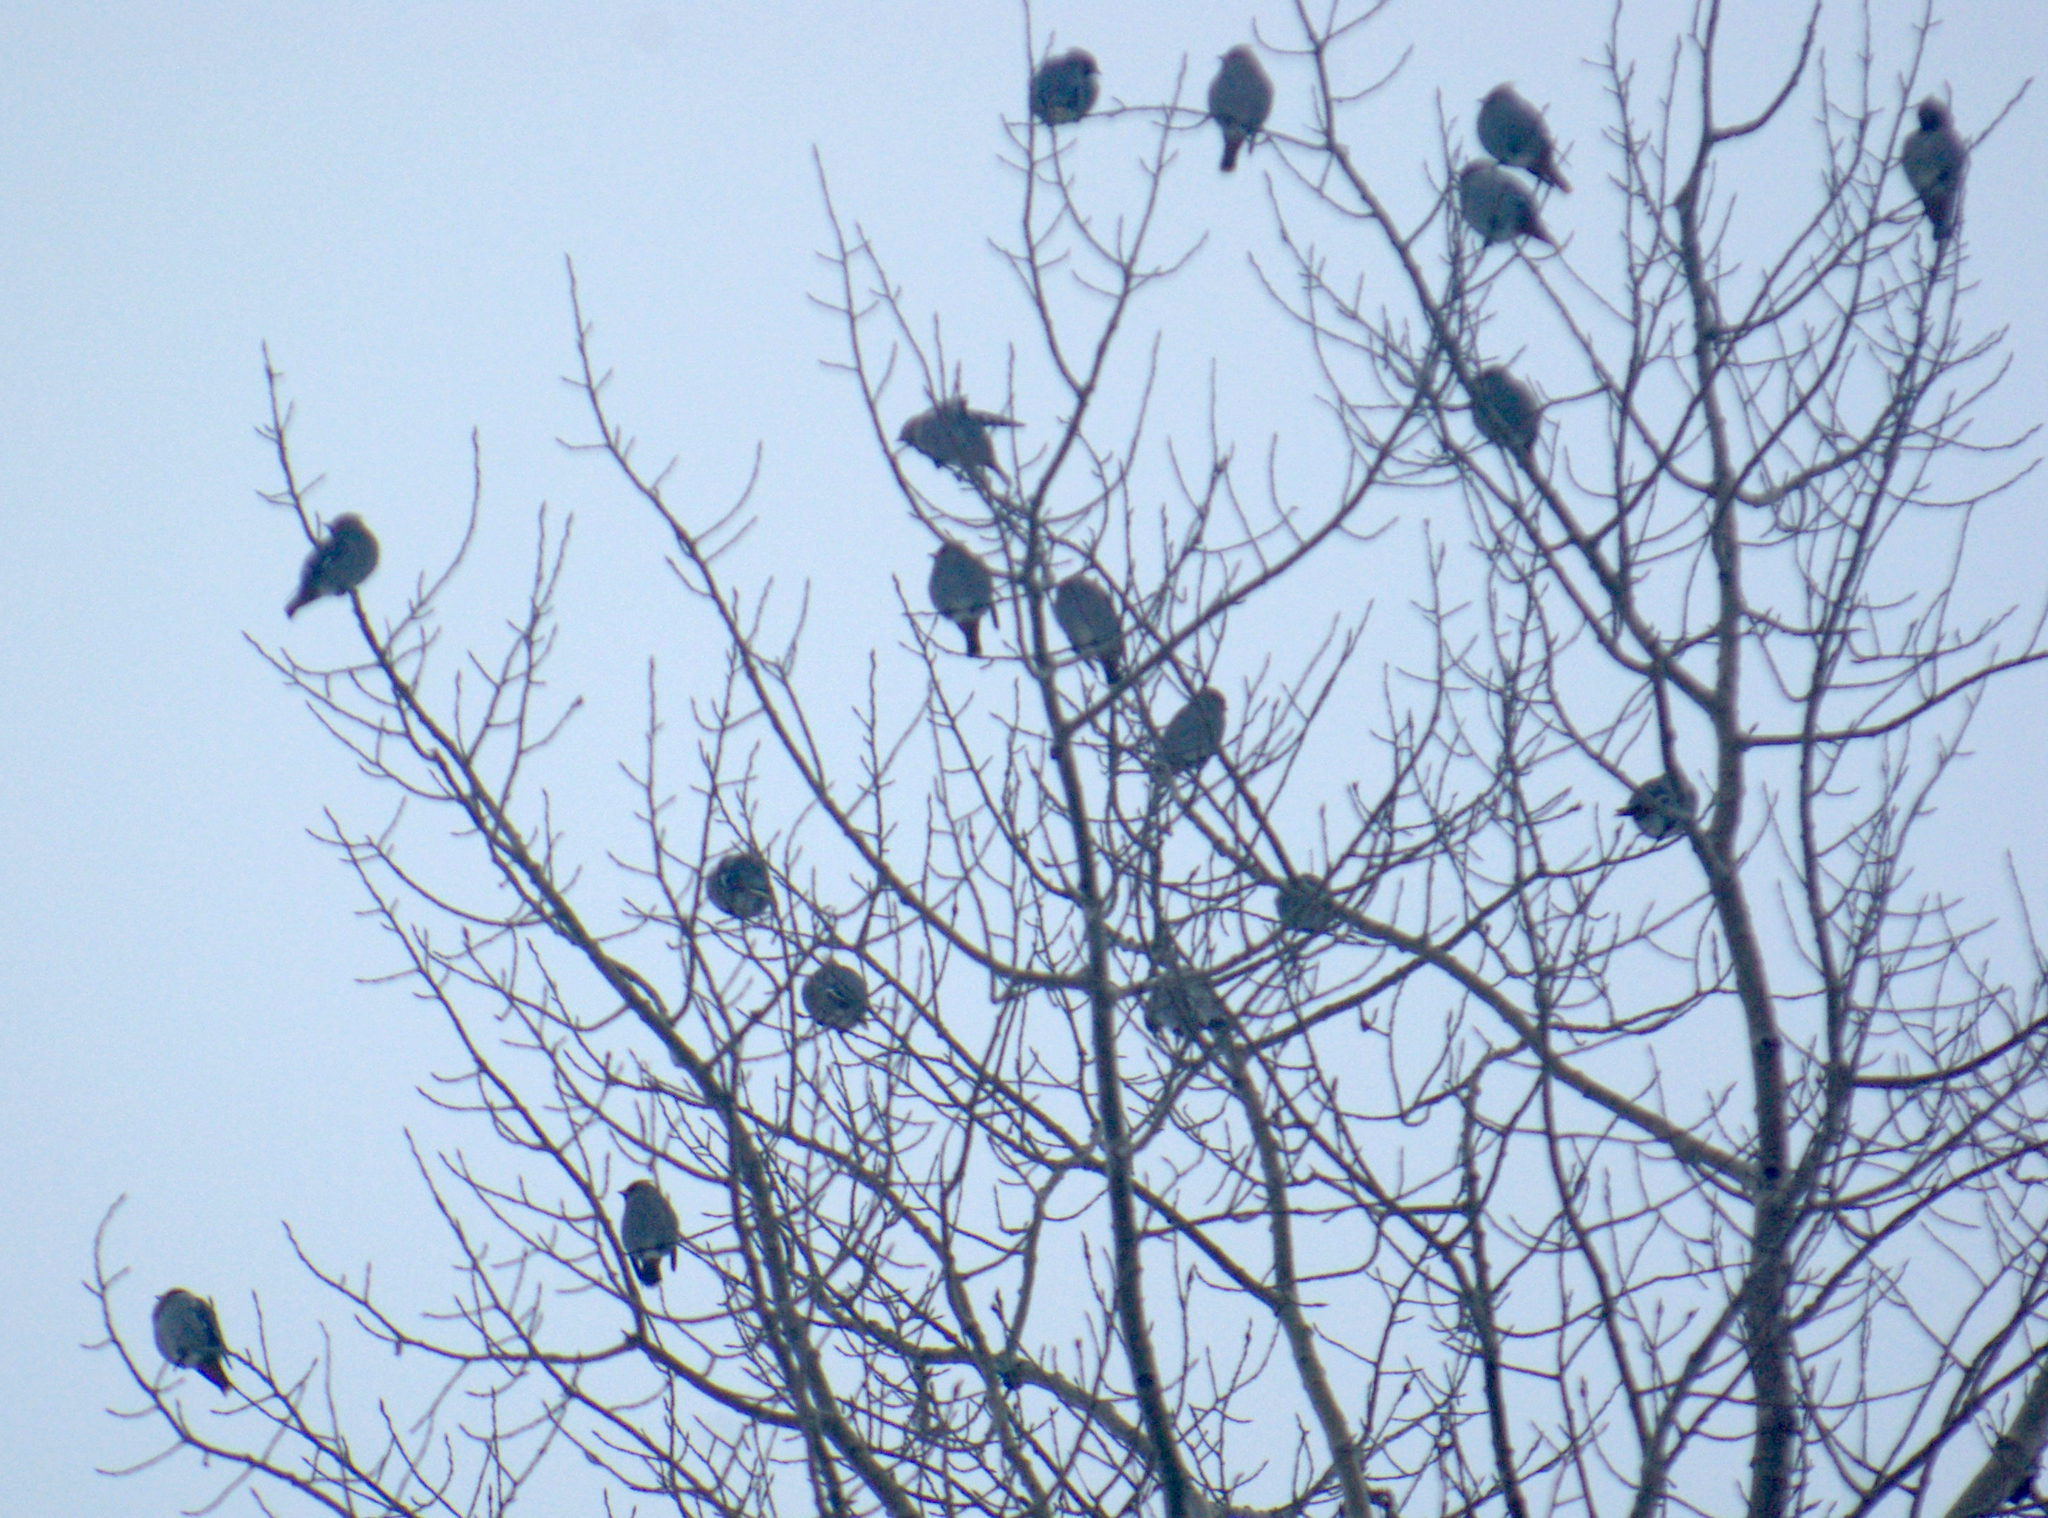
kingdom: Animalia
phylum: Chordata
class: Aves
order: Passeriformes
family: Bombycillidae
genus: Bombycilla
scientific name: Bombycilla garrulus
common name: Bohemian waxwing
